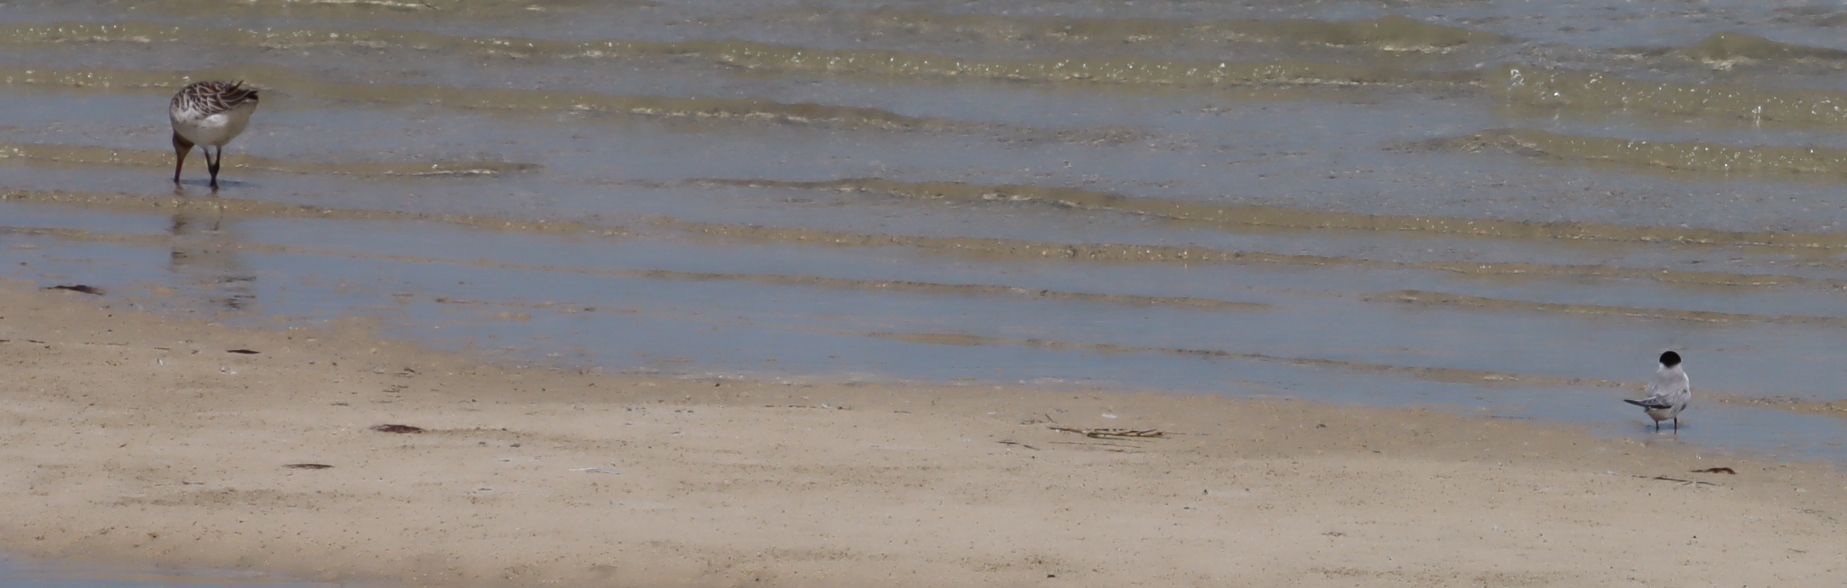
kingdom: Animalia
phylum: Chordata
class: Aves
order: Charadriiformes
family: Laridae
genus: Sternula
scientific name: Sternula albifrons
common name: Little tern
